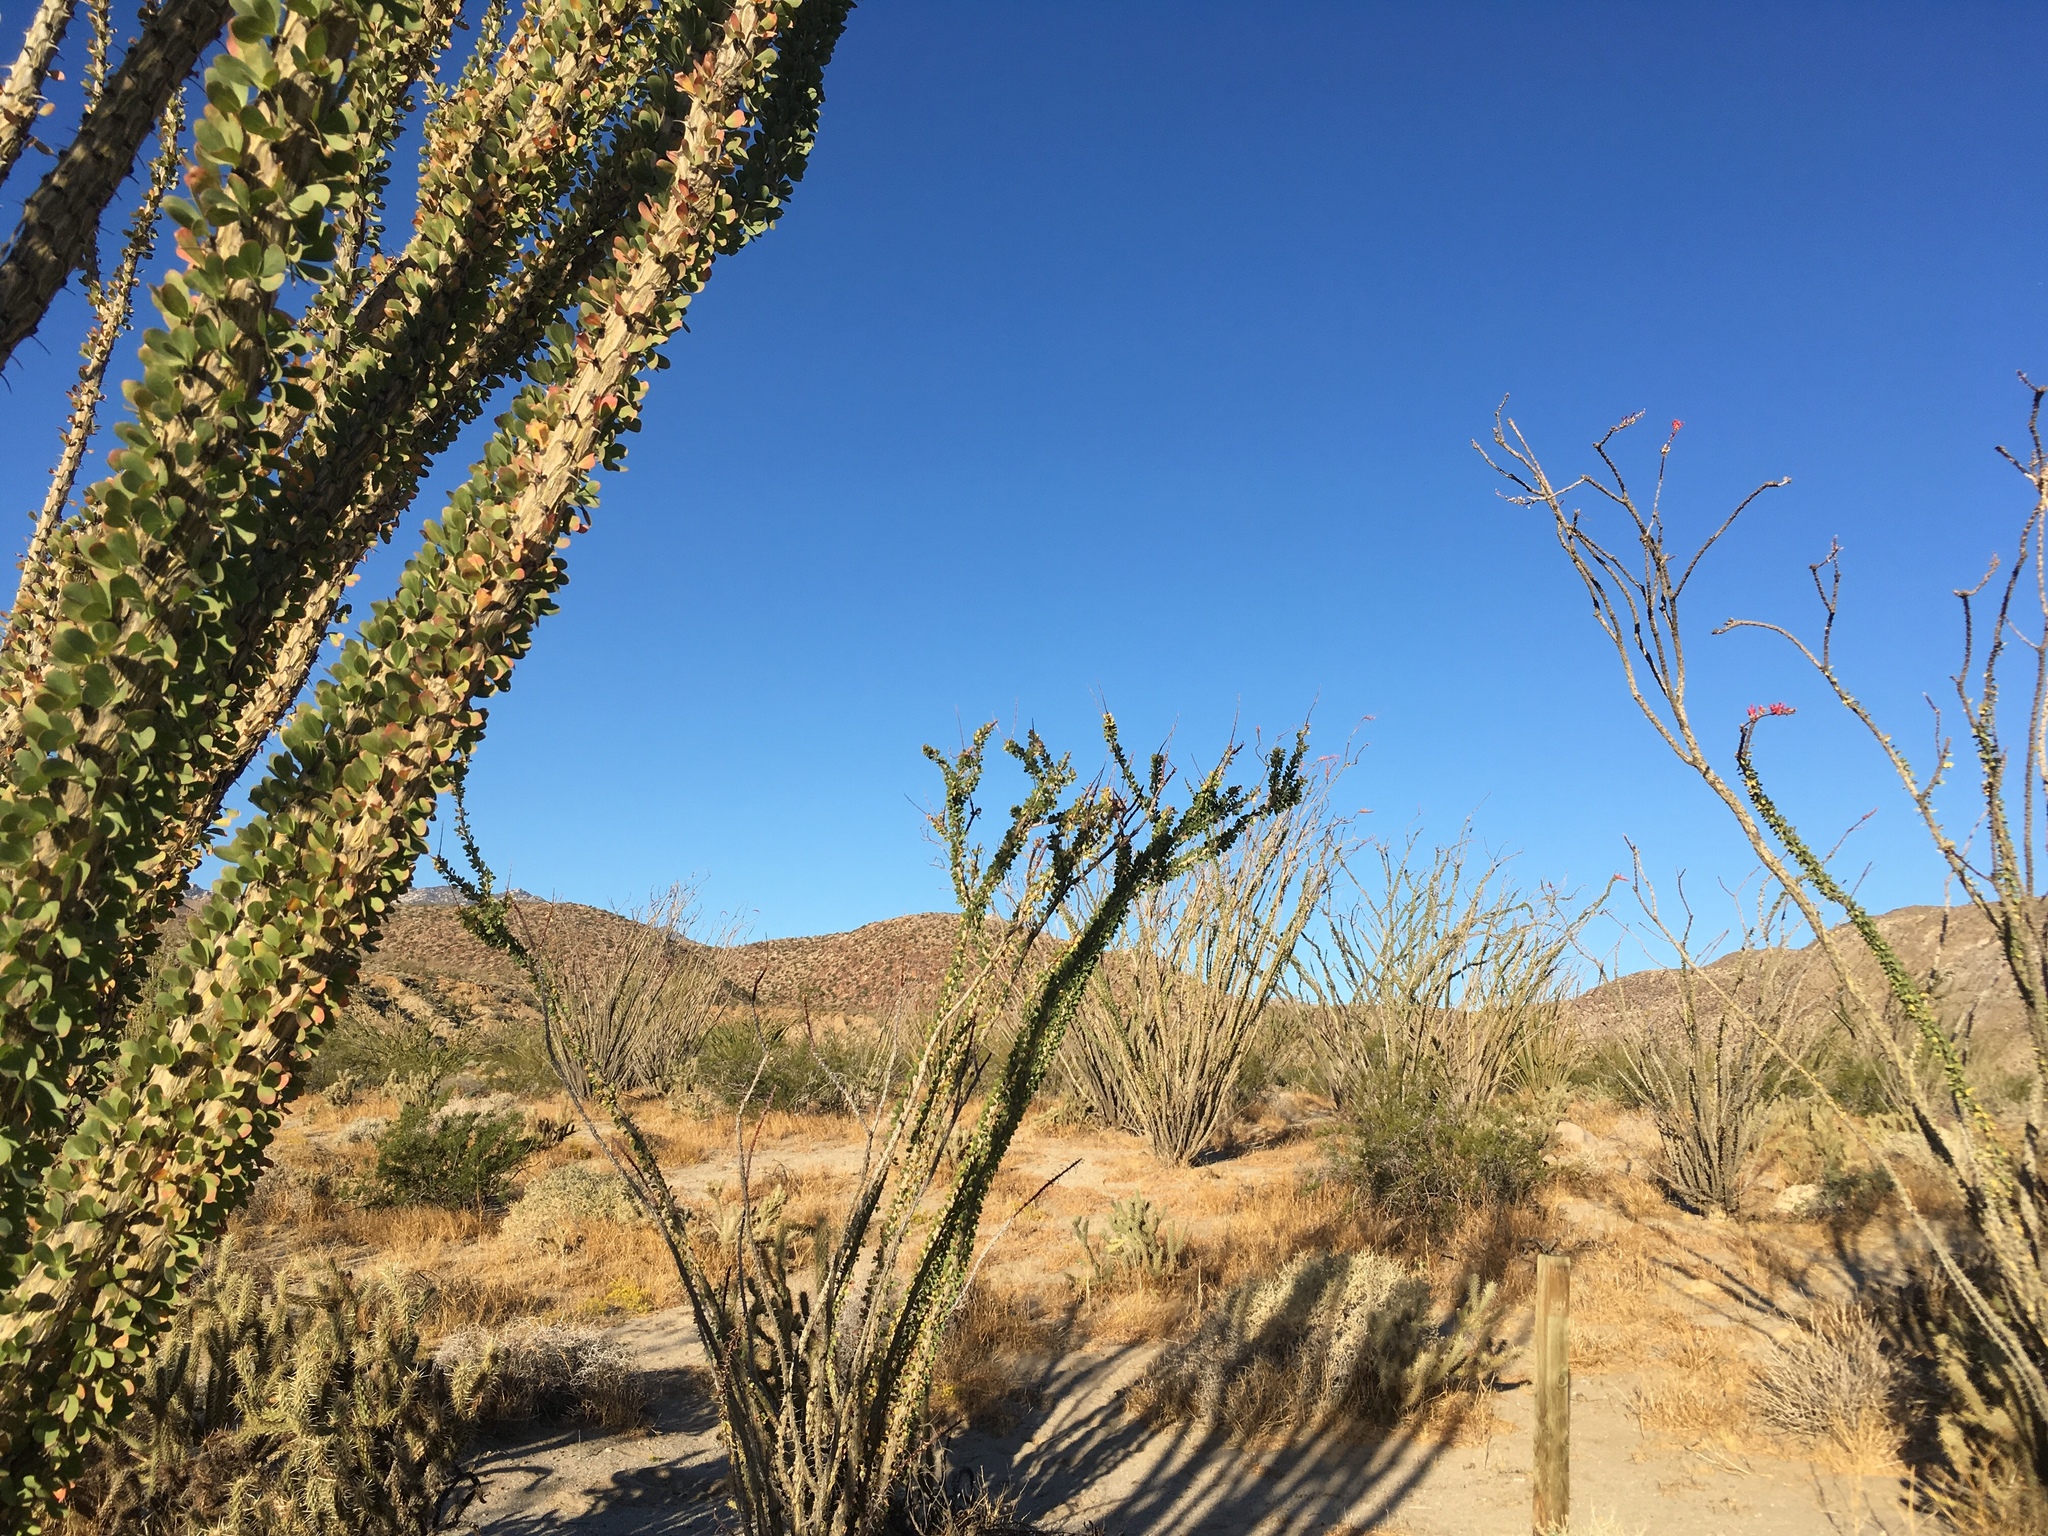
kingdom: Plantae
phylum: Tracheophyta
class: Magnoliopsida
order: Ericales
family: Fouquieriaceae
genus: Fouquieria
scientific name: Fouquieria splendens
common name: Vine-cactus
